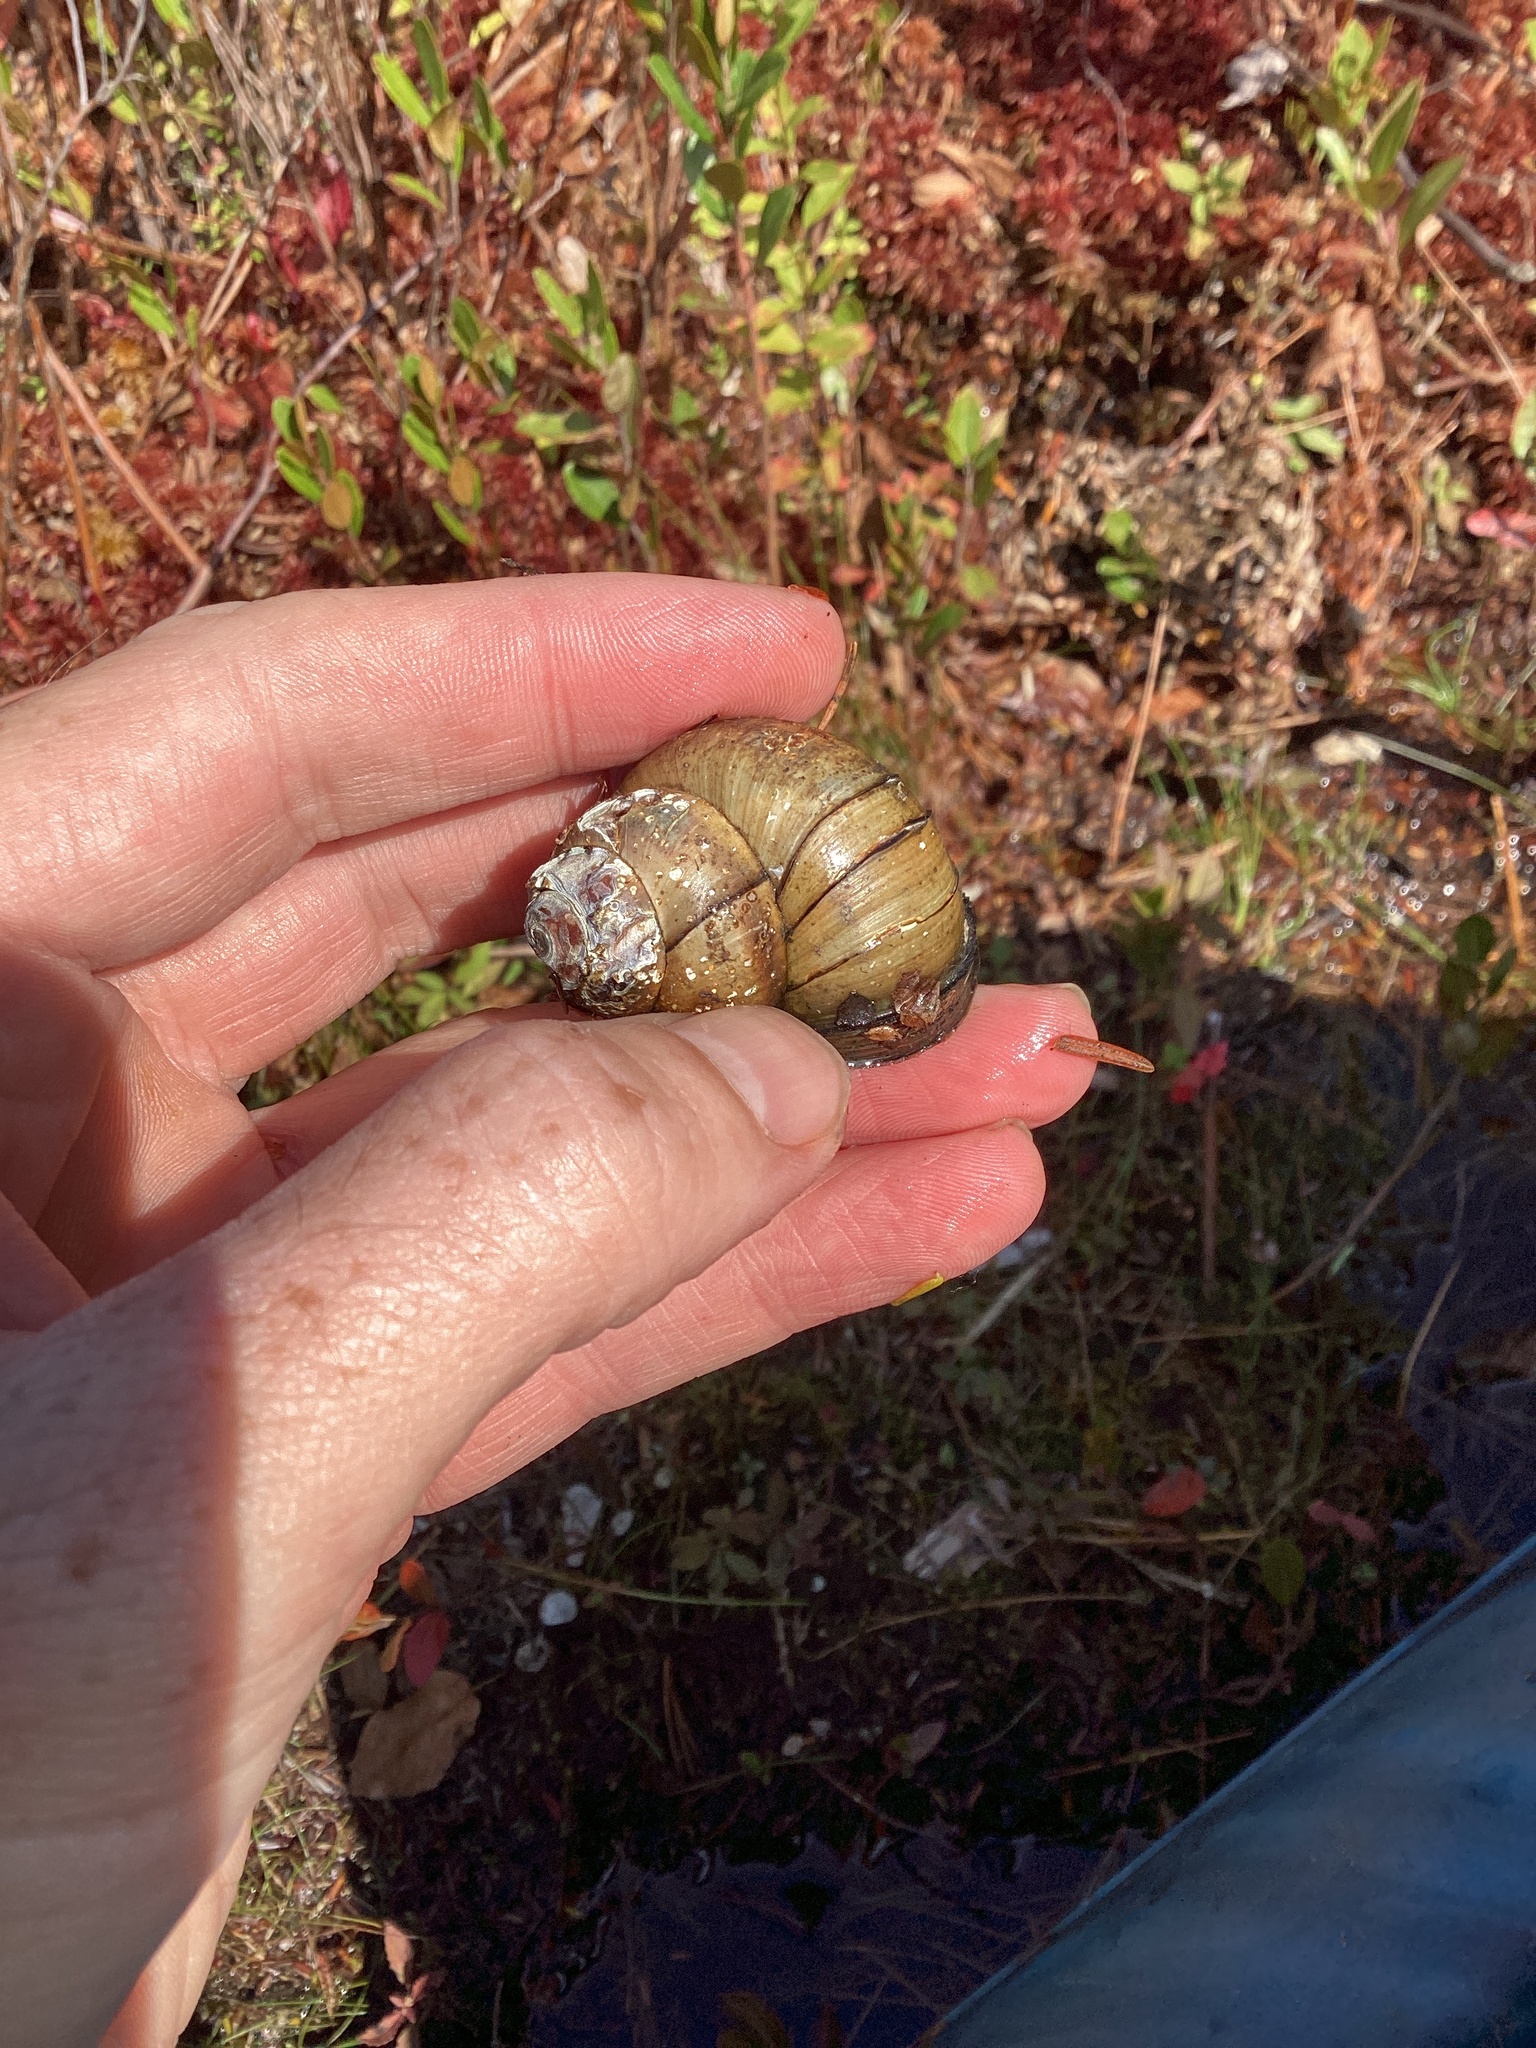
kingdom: Animalia
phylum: Mollusca
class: Gastropoda
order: Architaenioglossa
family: Viviparidae
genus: Cipangopaludina
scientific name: Cipangopaludina chinensis
